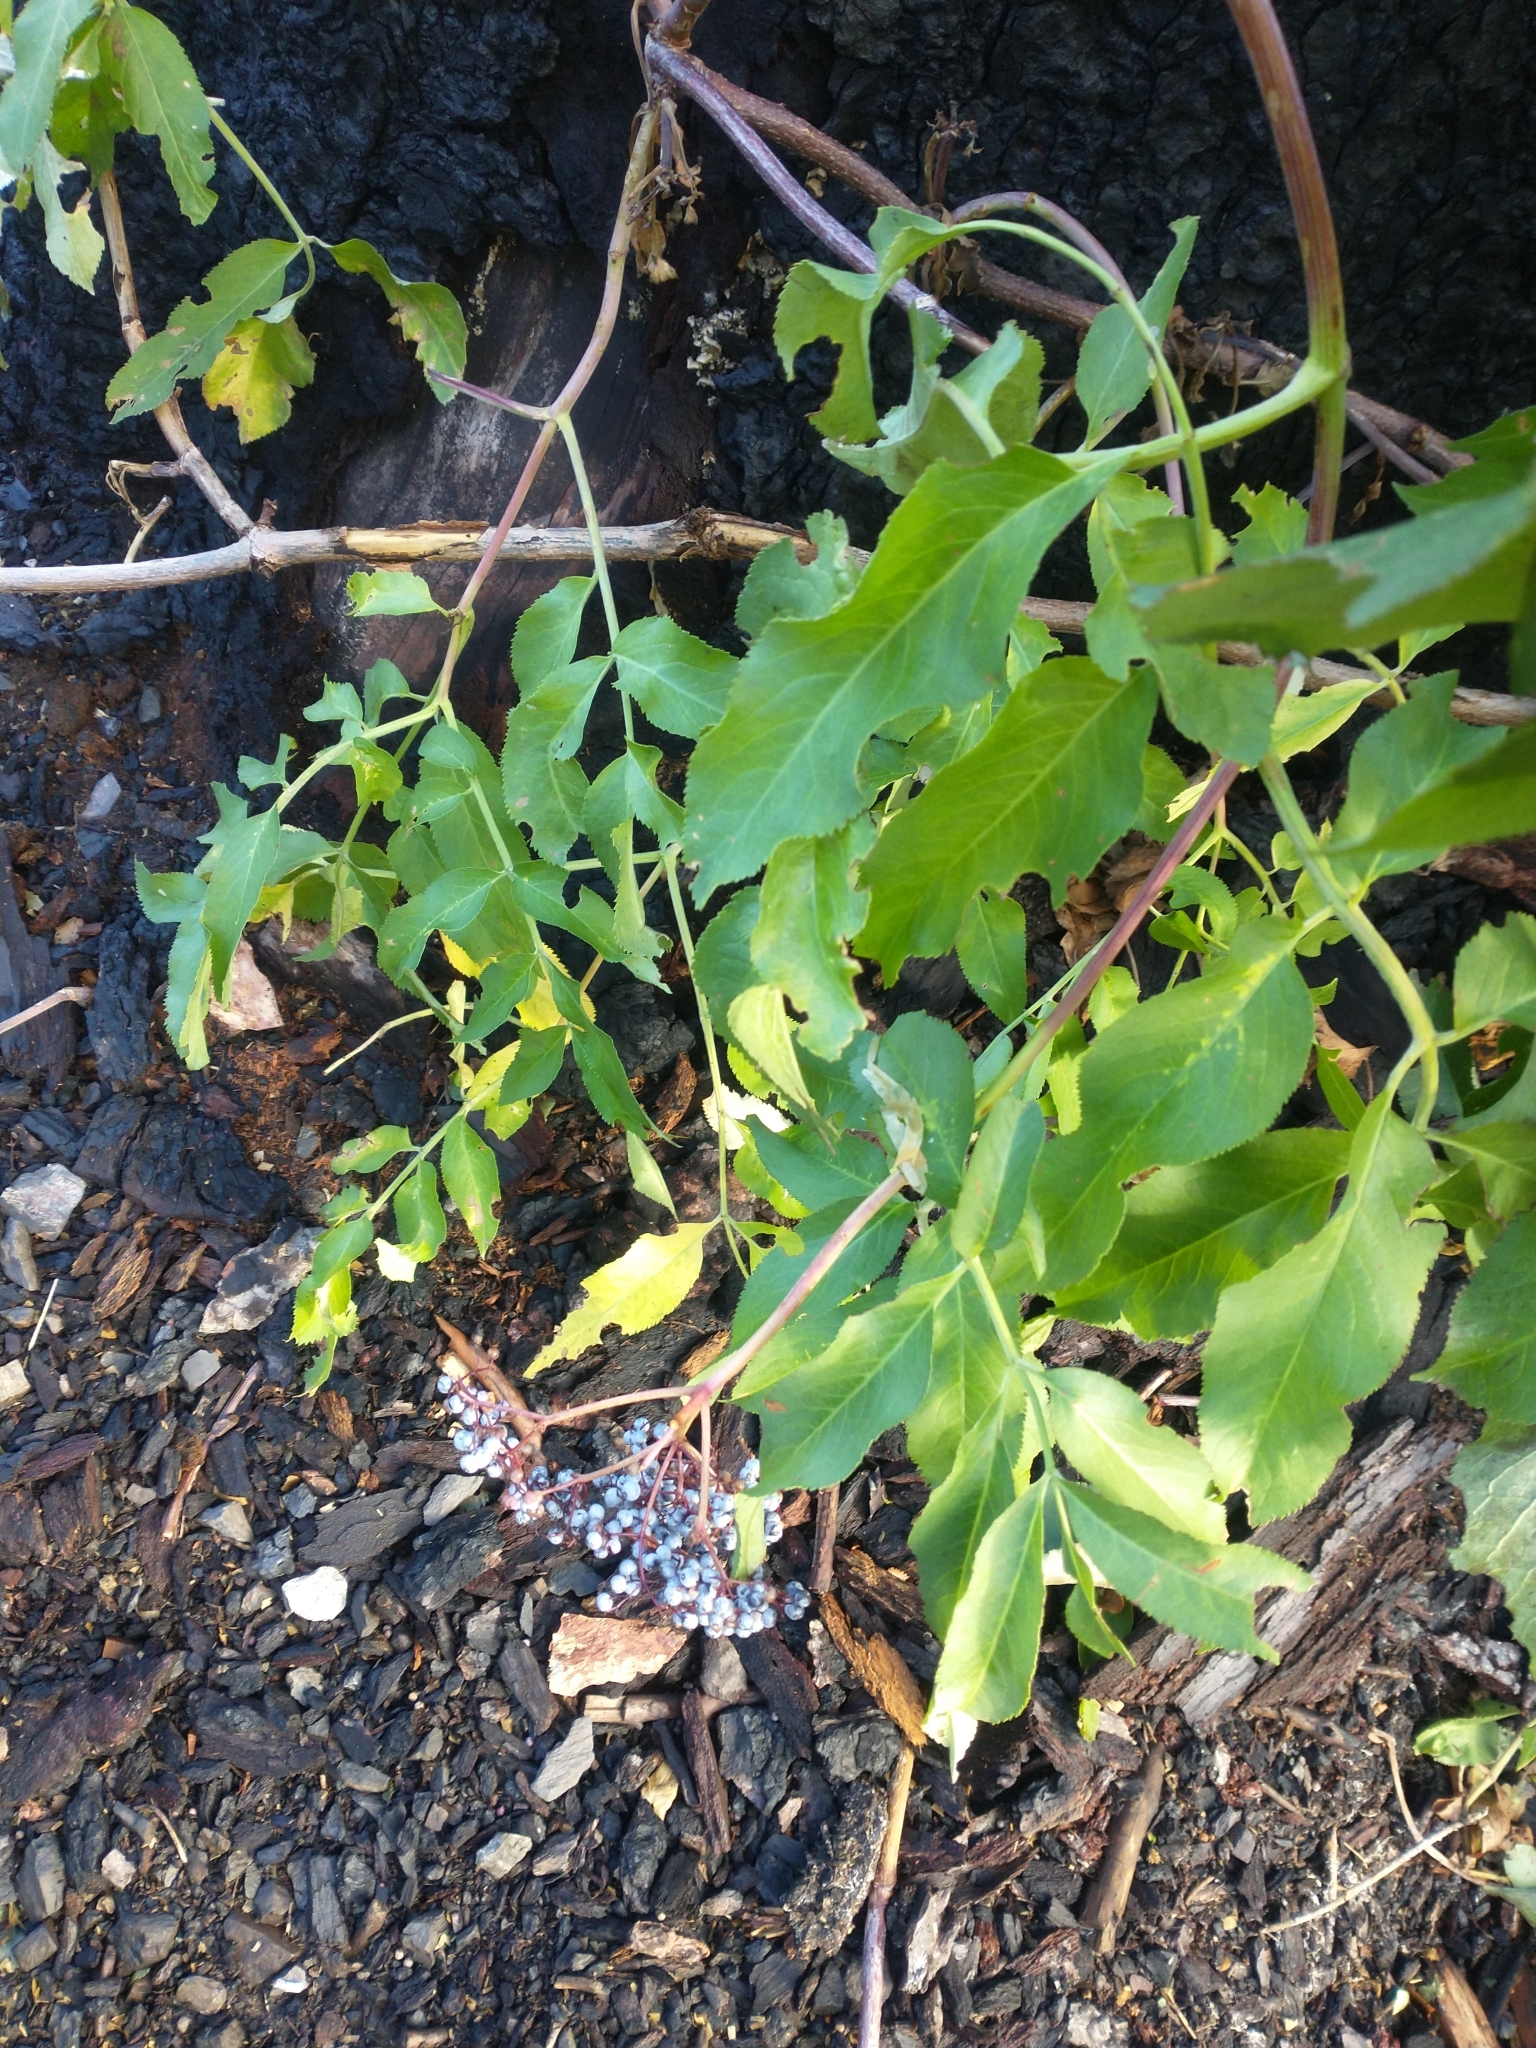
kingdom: Plantae
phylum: Tracheophyta
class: Magnoliopsida
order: Dipsacales
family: Viburnaceae
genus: Sambucus
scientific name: Sambucus cerulea
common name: Blue elder
